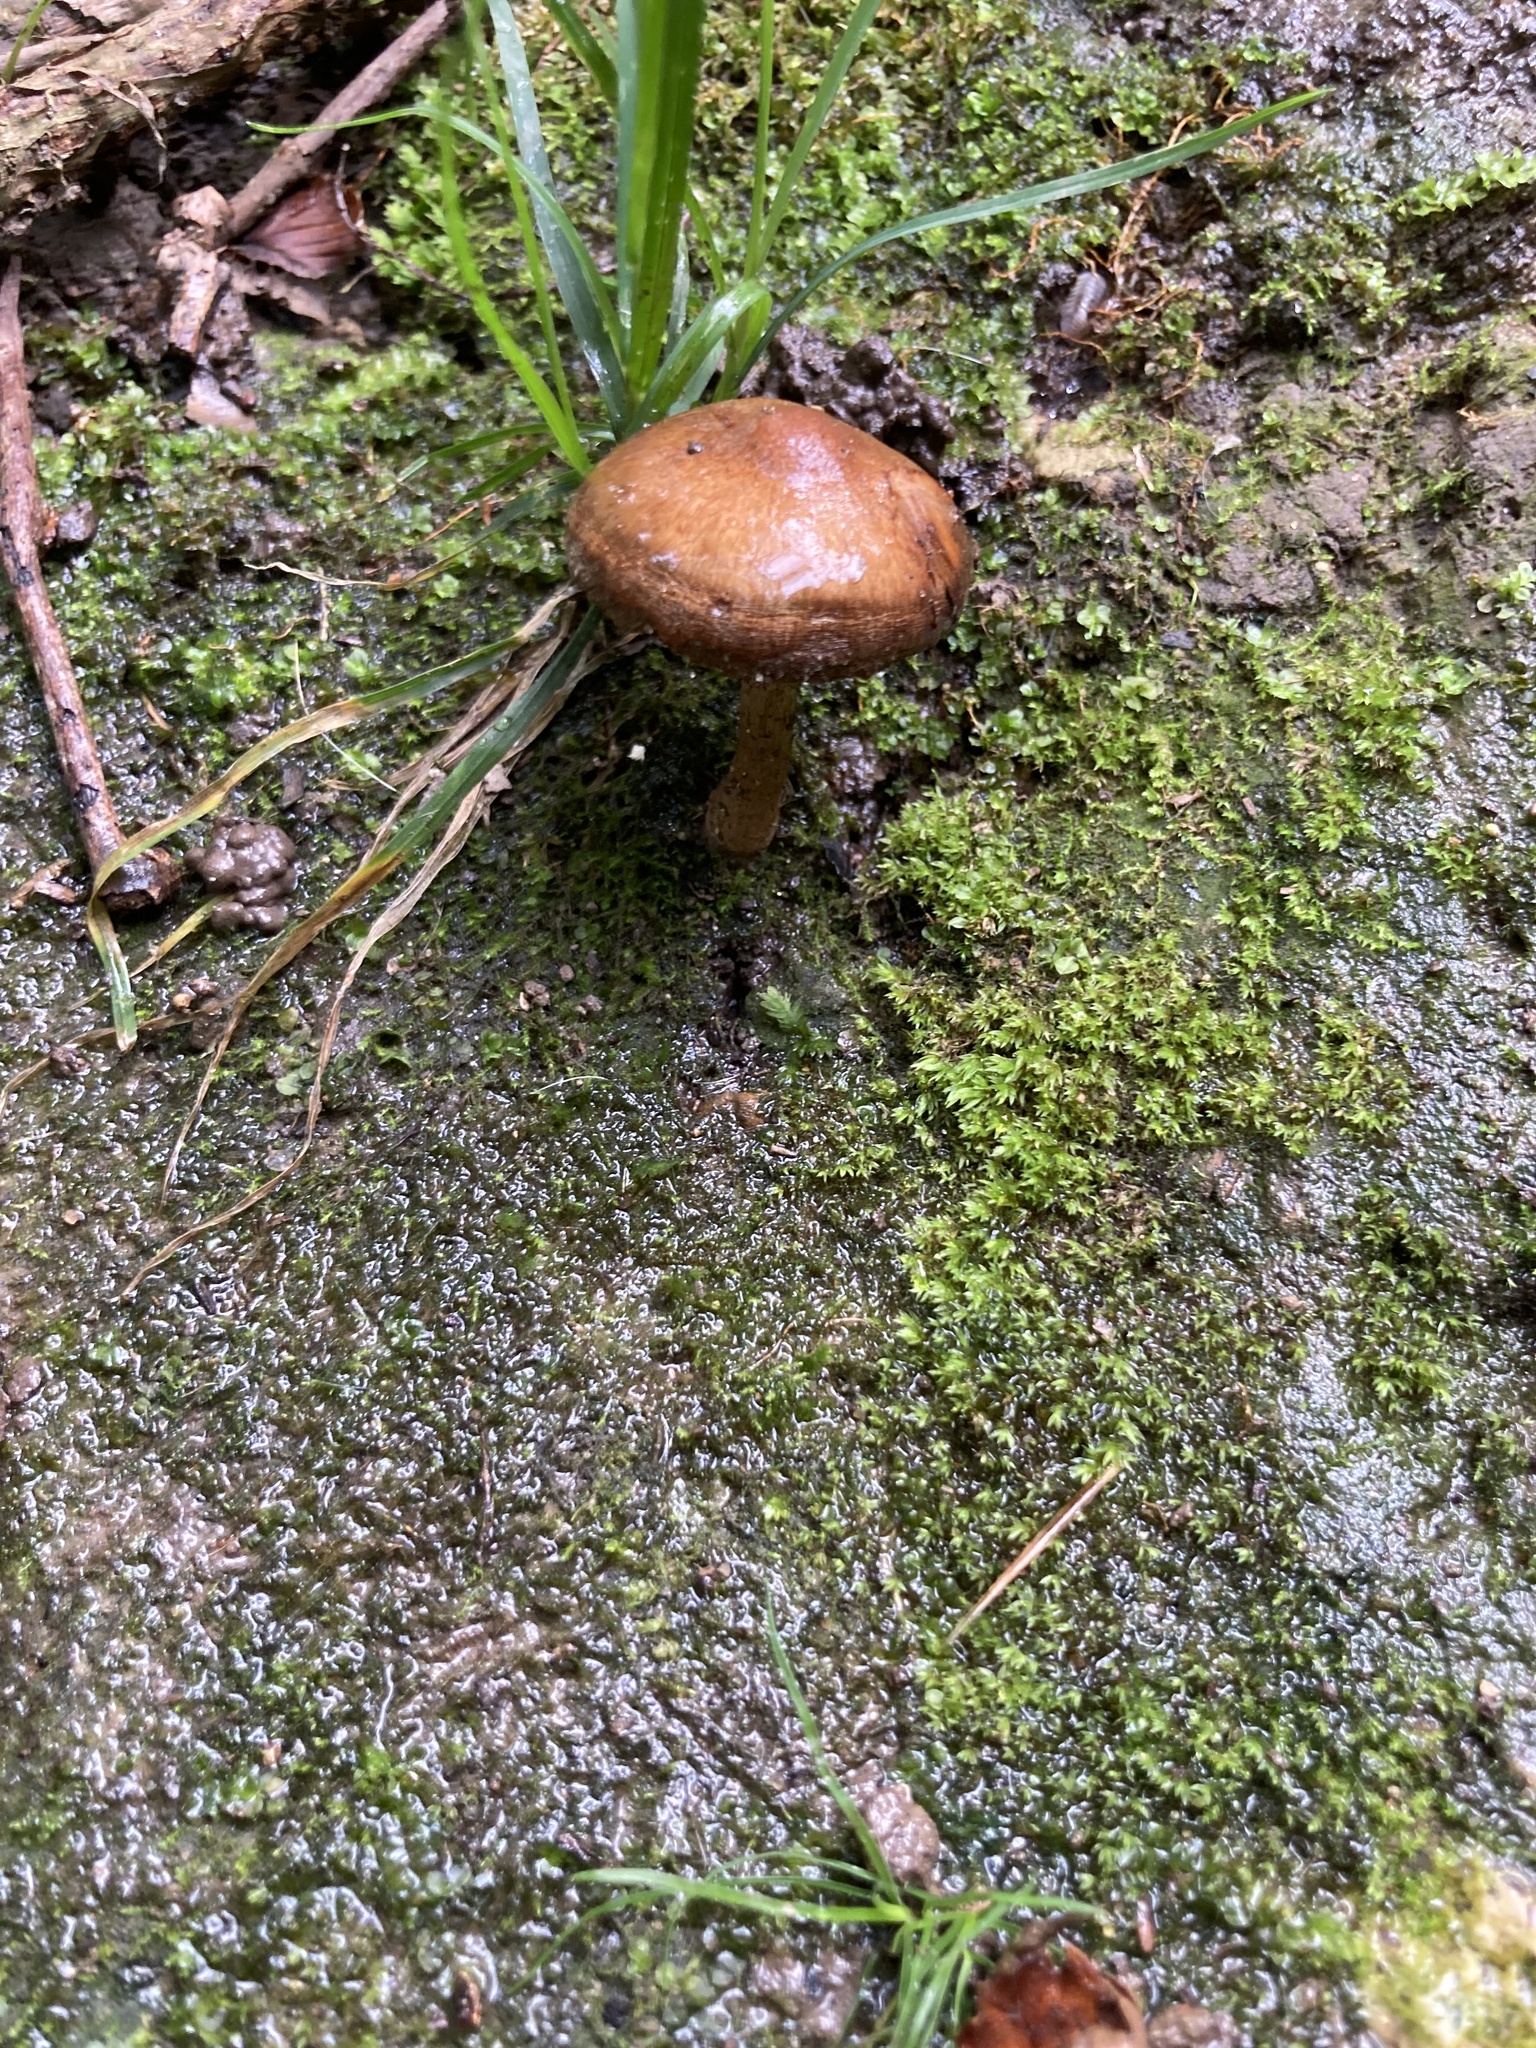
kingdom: Fungi
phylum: Basidiomycota
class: Agaricomycetes
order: Agaricales
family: Psathyrellaceae
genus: Lacrymaria
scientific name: Lacrymaria lacrymabunda
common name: Weeping widow
